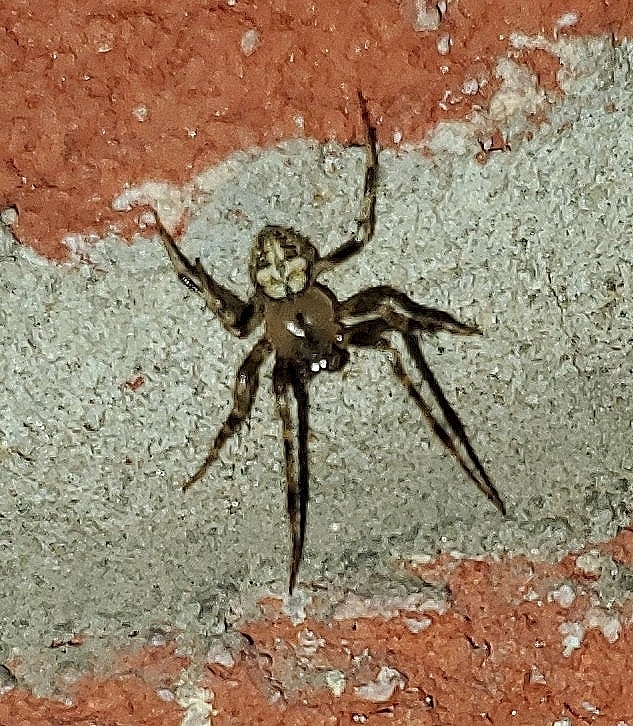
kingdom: Animalia
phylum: Arthropoda
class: Arachnida
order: Araneae
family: Araneidae
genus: Araneus
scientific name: Araneus pegnia
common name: Orb weavers
